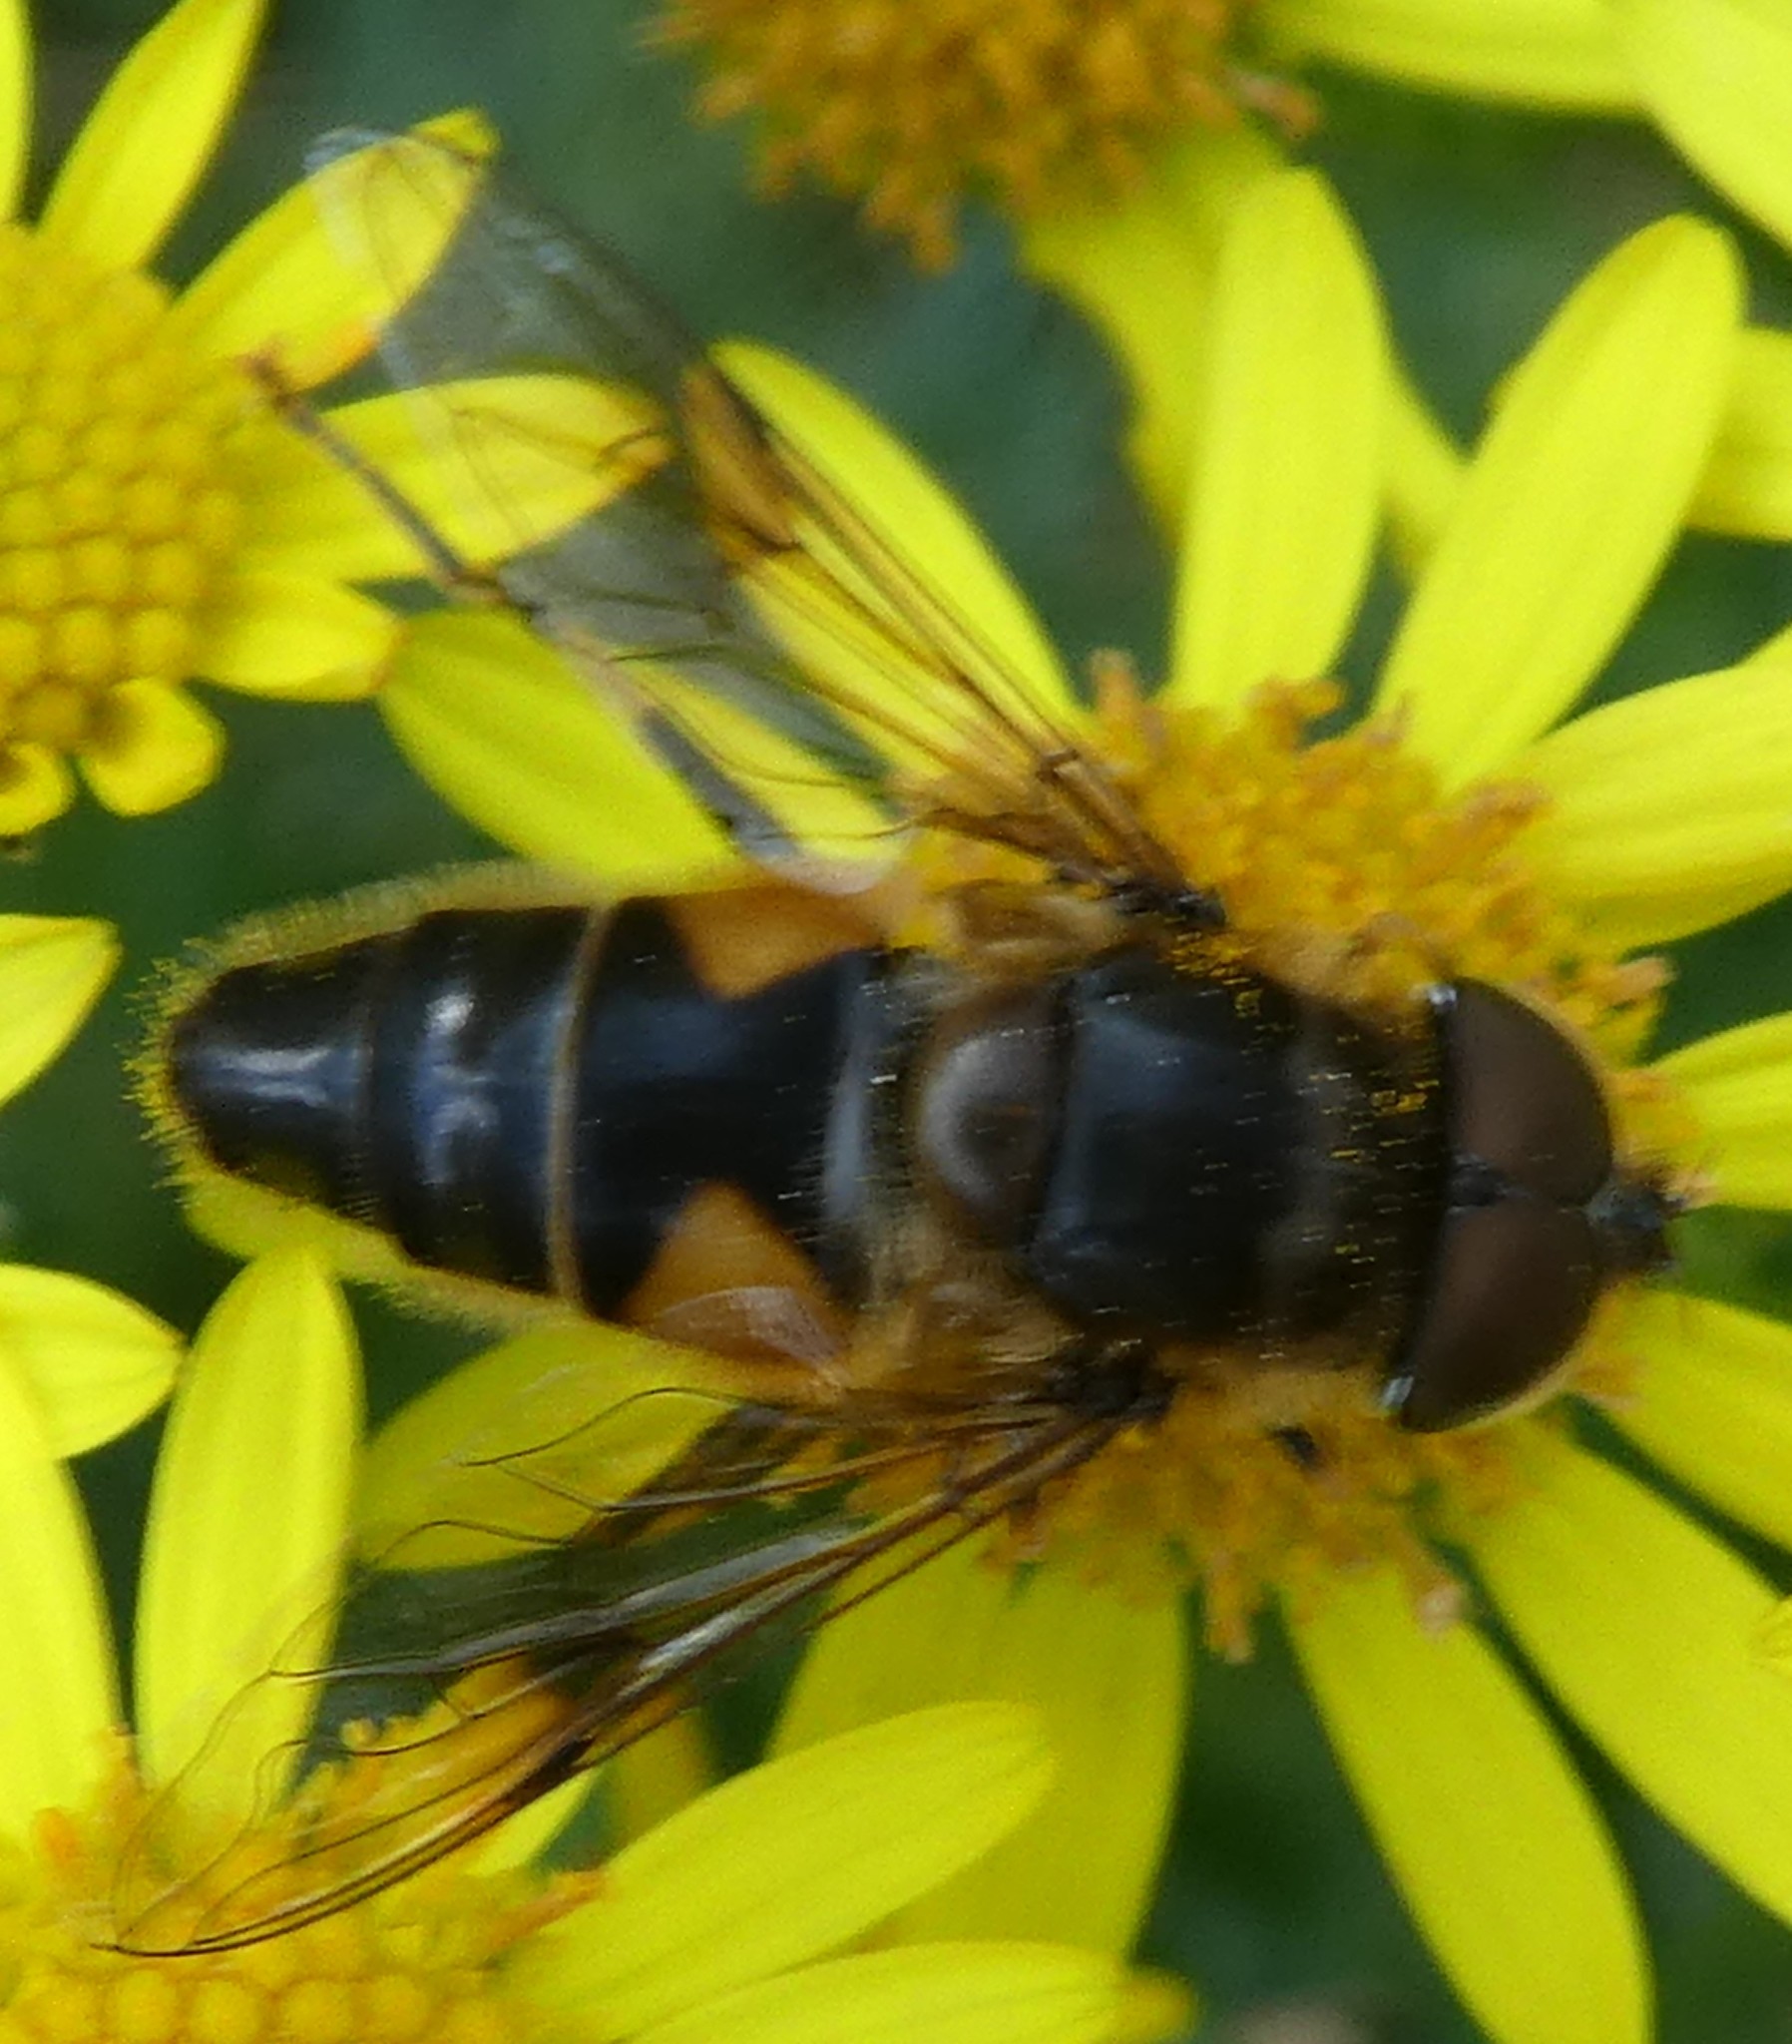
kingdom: Animalia
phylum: Arthropoda
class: Insecta
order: Diptera
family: Syrphidae
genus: Eristalis
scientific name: Eristalis pertinax
